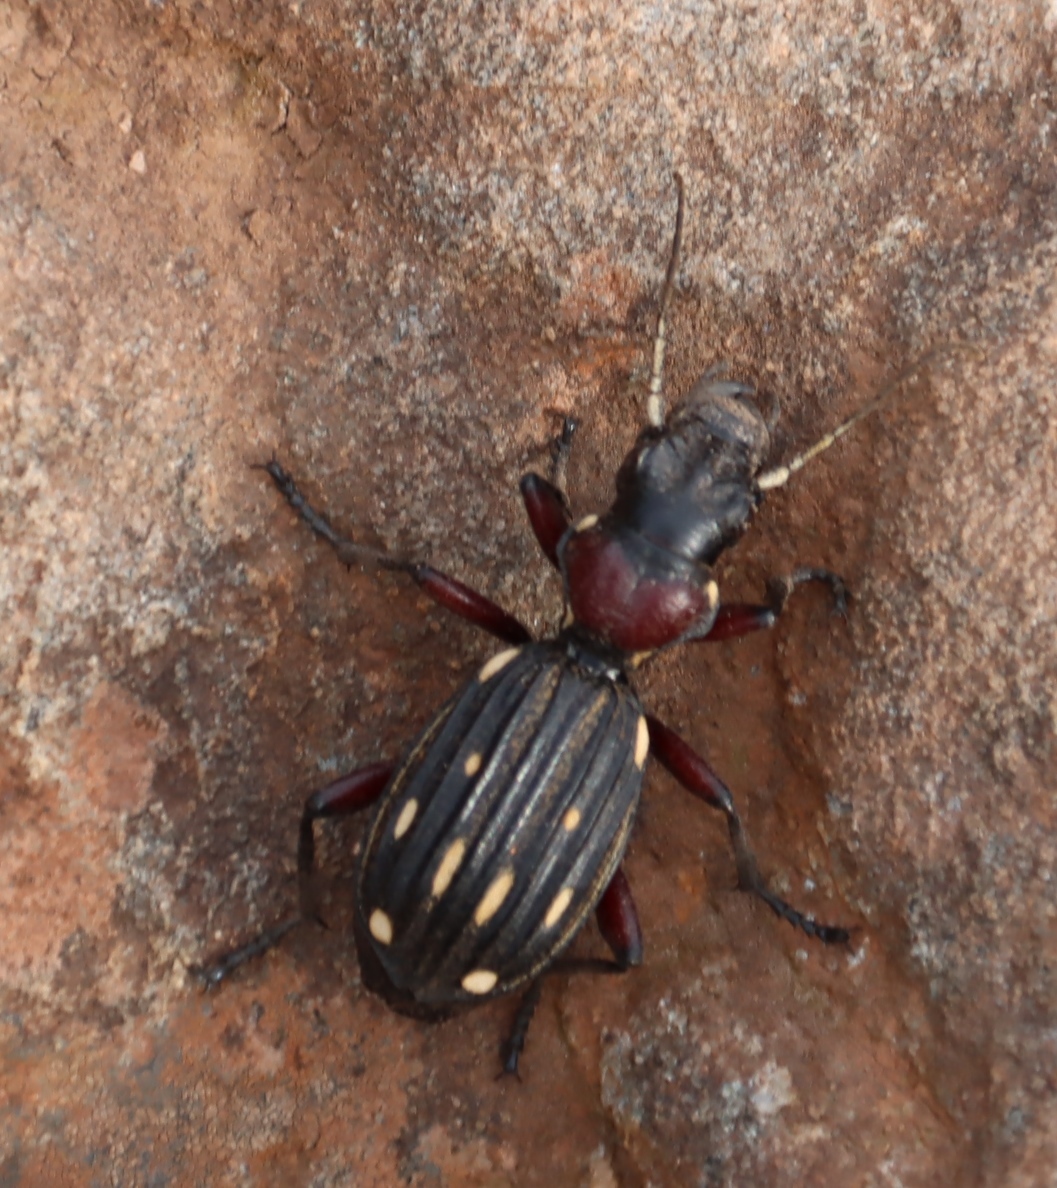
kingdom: Animalia
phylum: Arthropoda
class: Insecta
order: Coleoptera
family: Carabidae
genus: Anthia
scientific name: Anthia decemguttata
